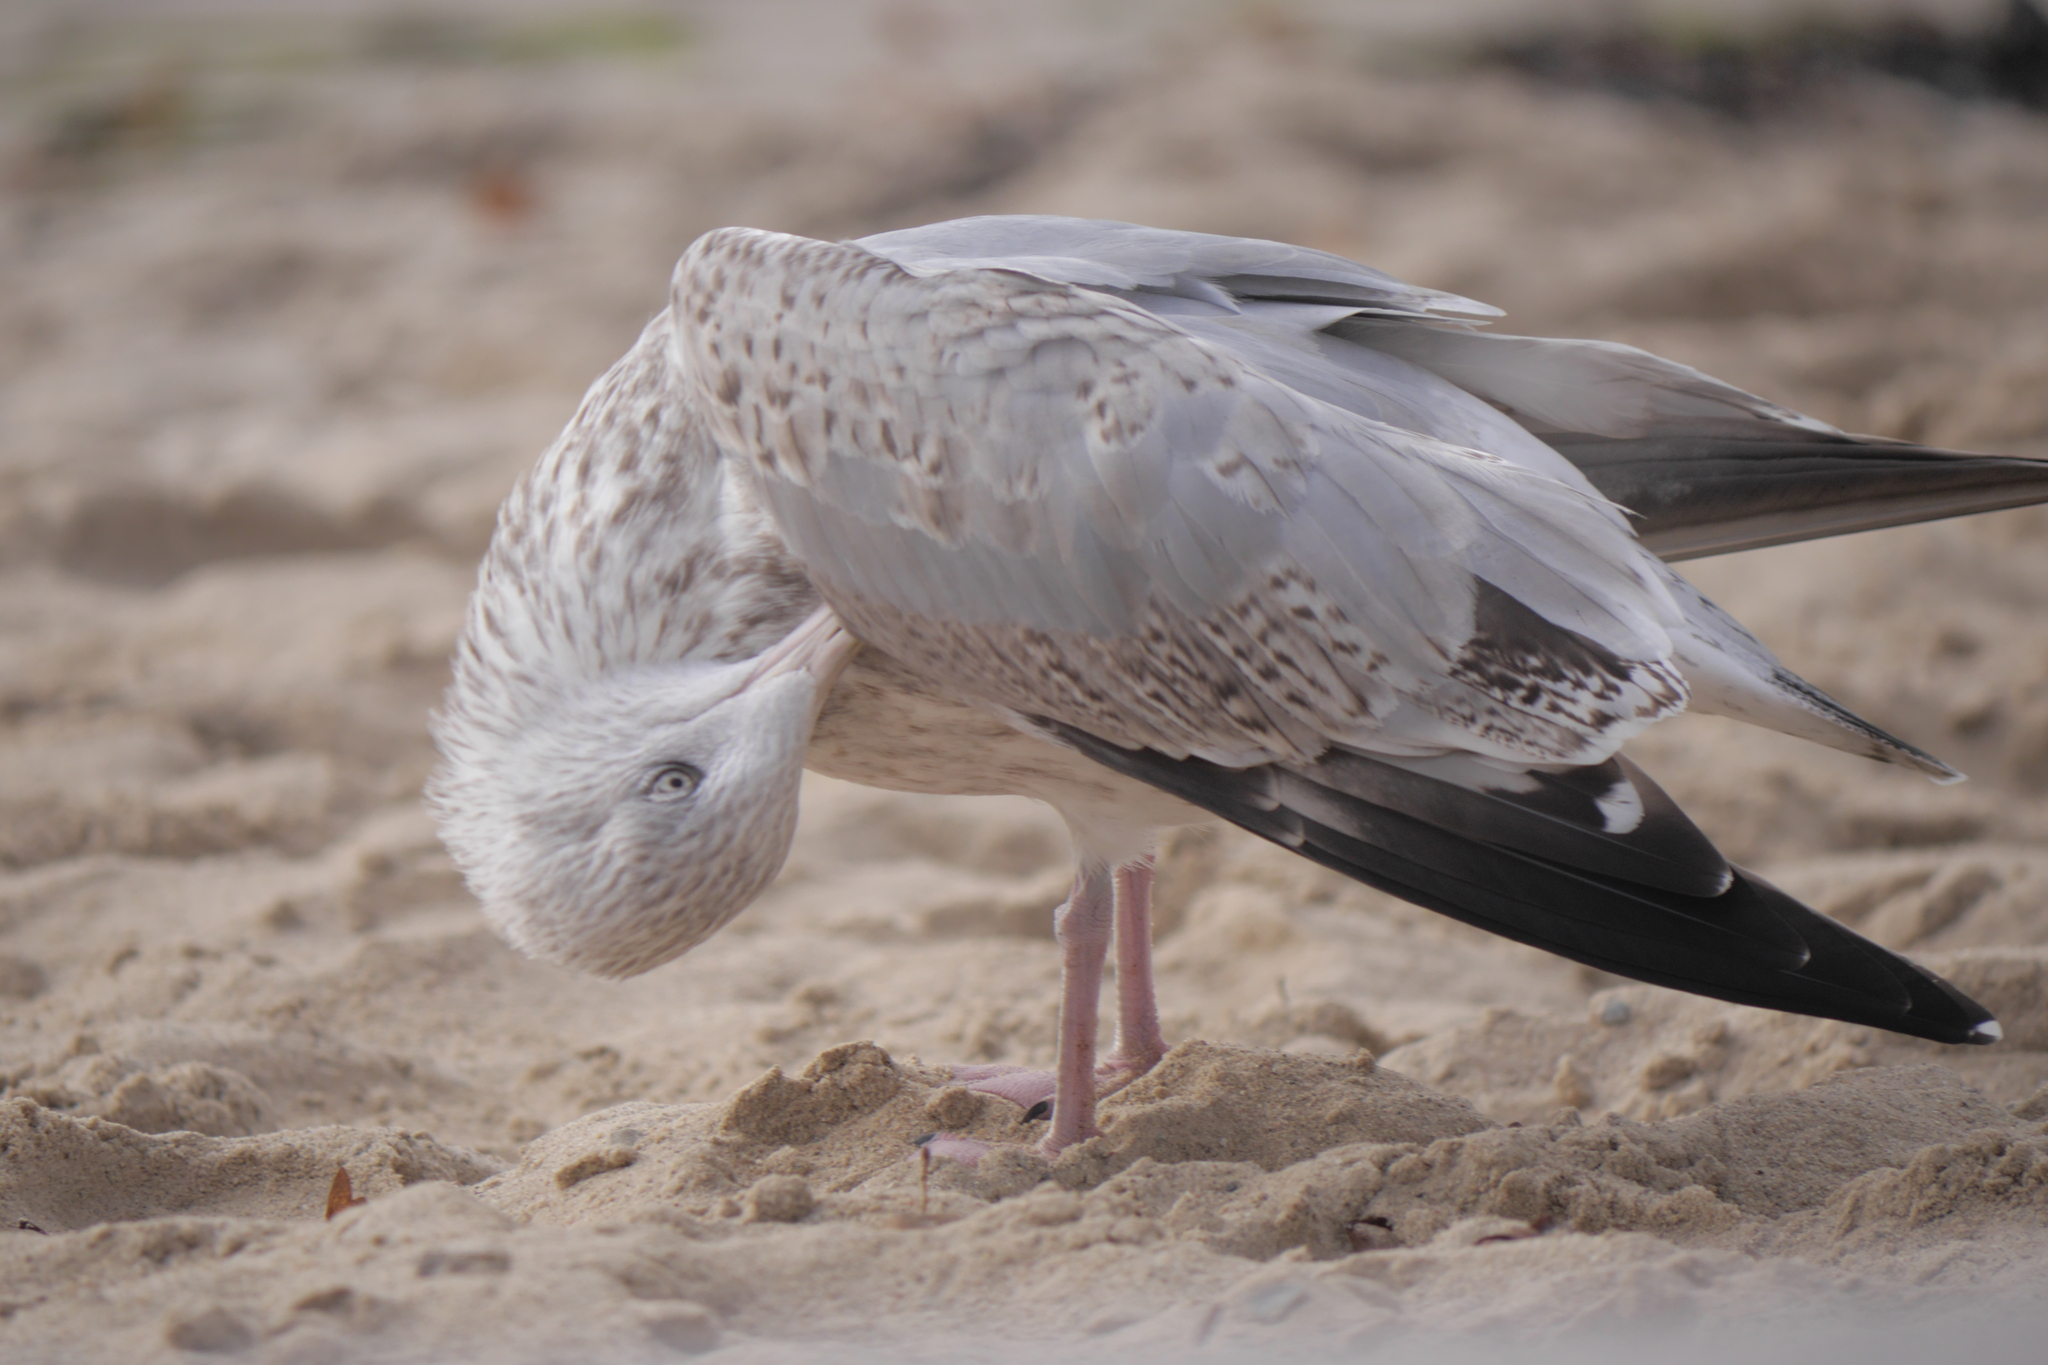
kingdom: Animalia
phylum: Chordata
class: Aves
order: Charadriiformes
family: Laridae
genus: Larus
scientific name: Larus argentatus
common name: Herring gull
